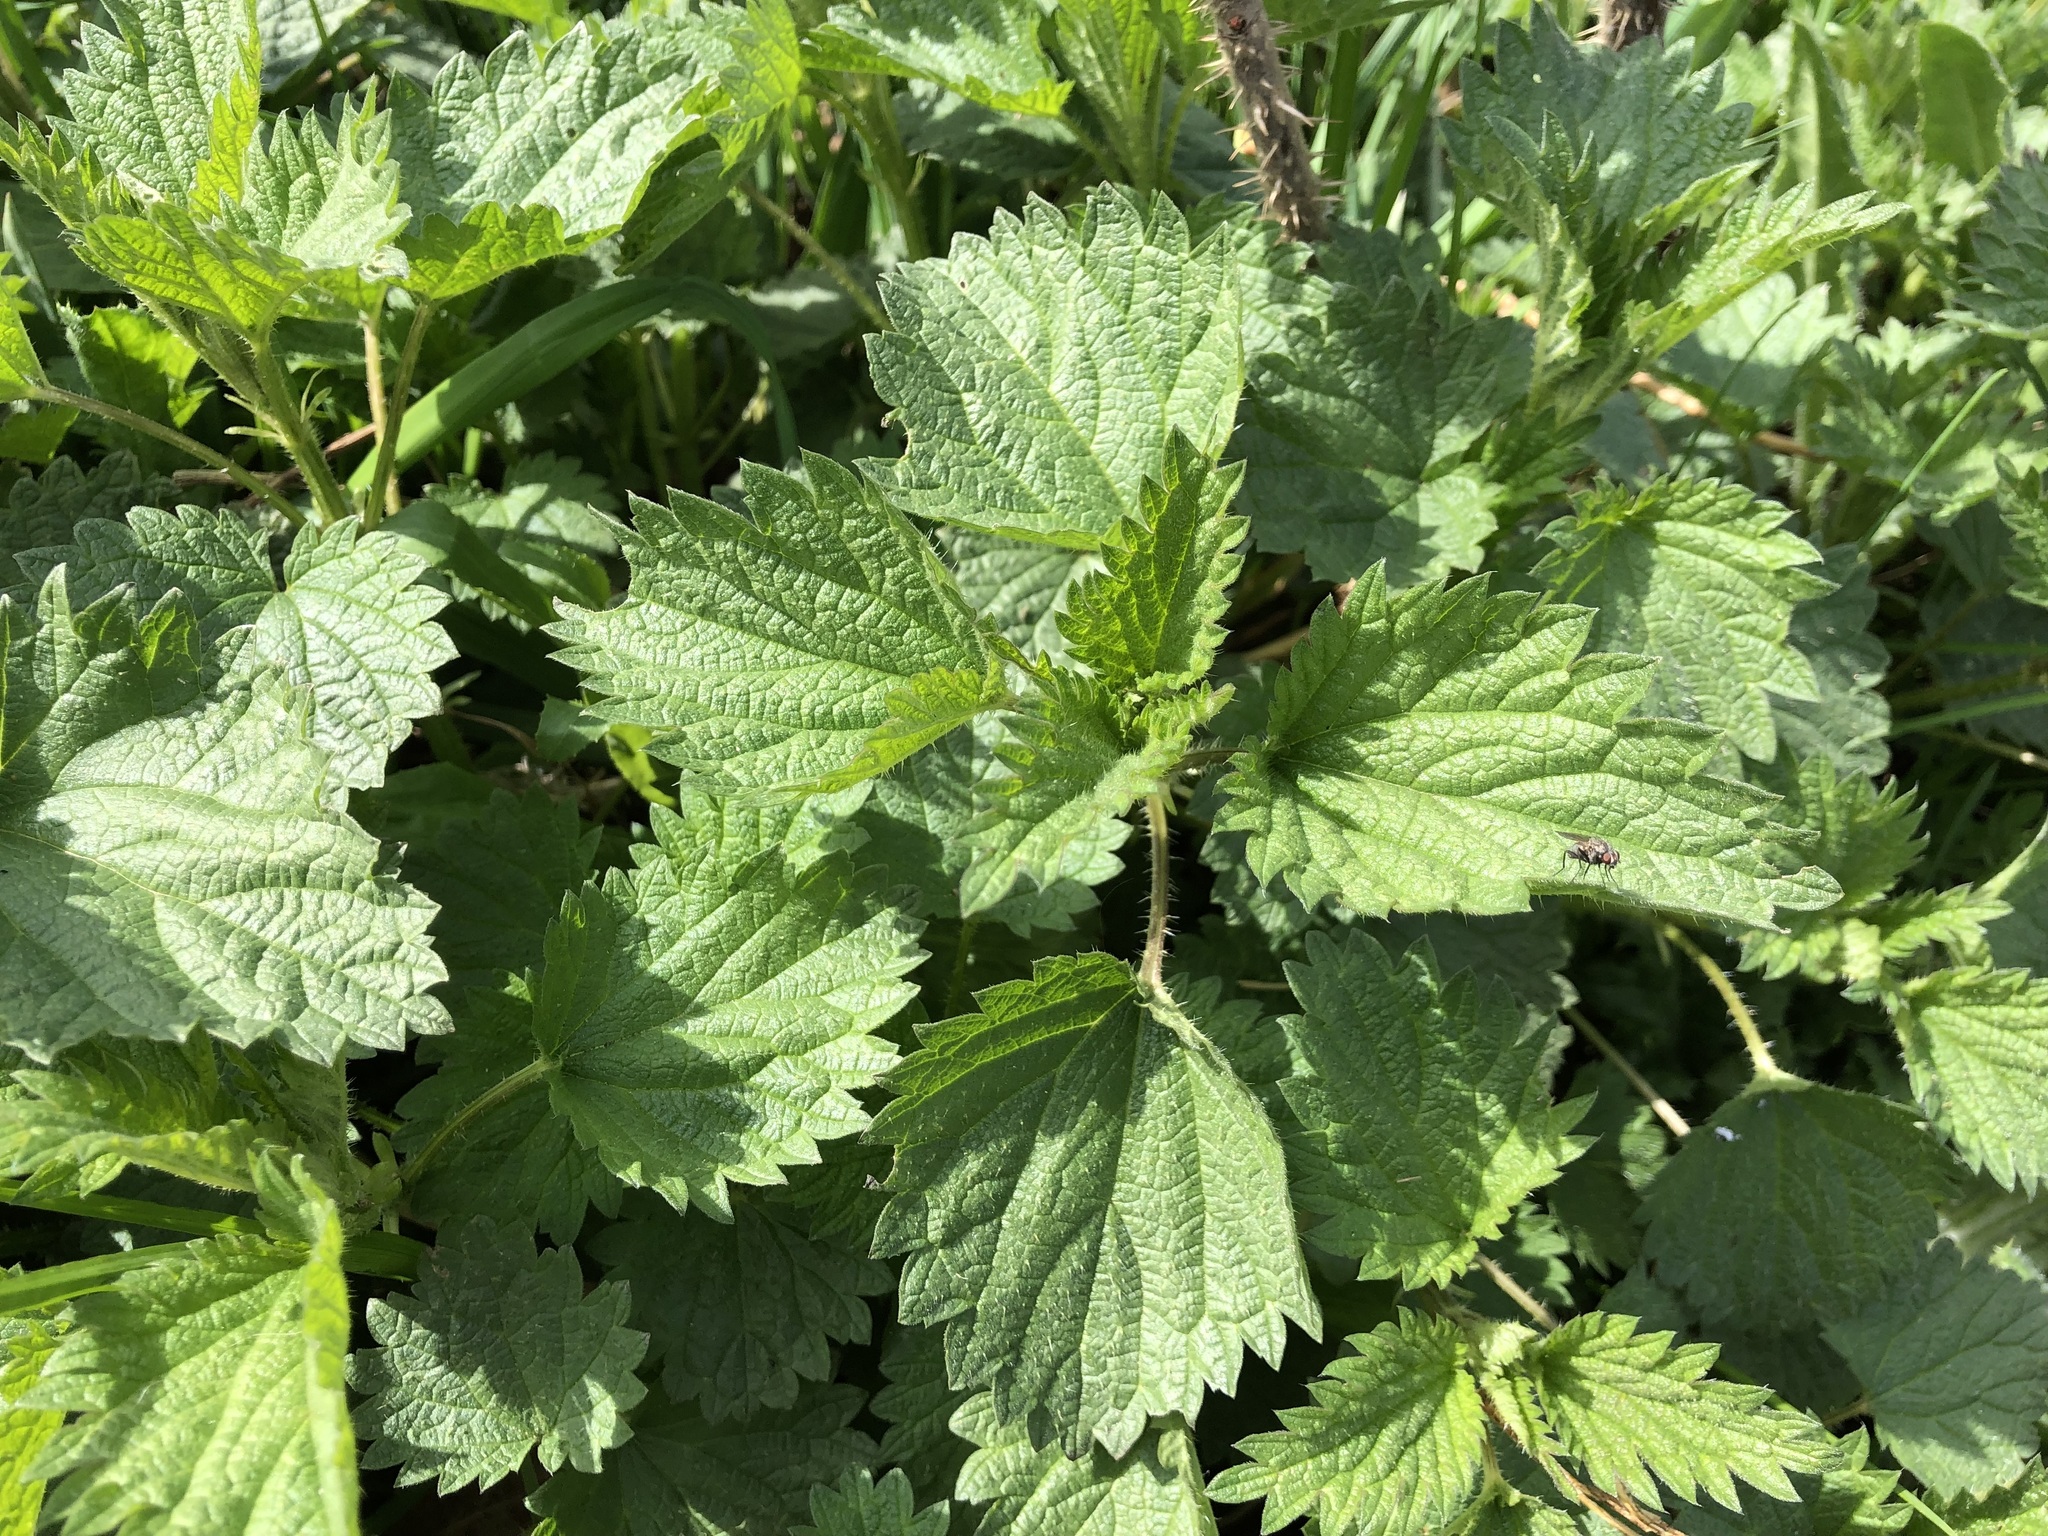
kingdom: Plantae
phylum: Tracheophyta
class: Magnoliopsida
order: Rosales
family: Urticaceae
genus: Urtica
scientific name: Urtica dioica
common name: Common nettle
